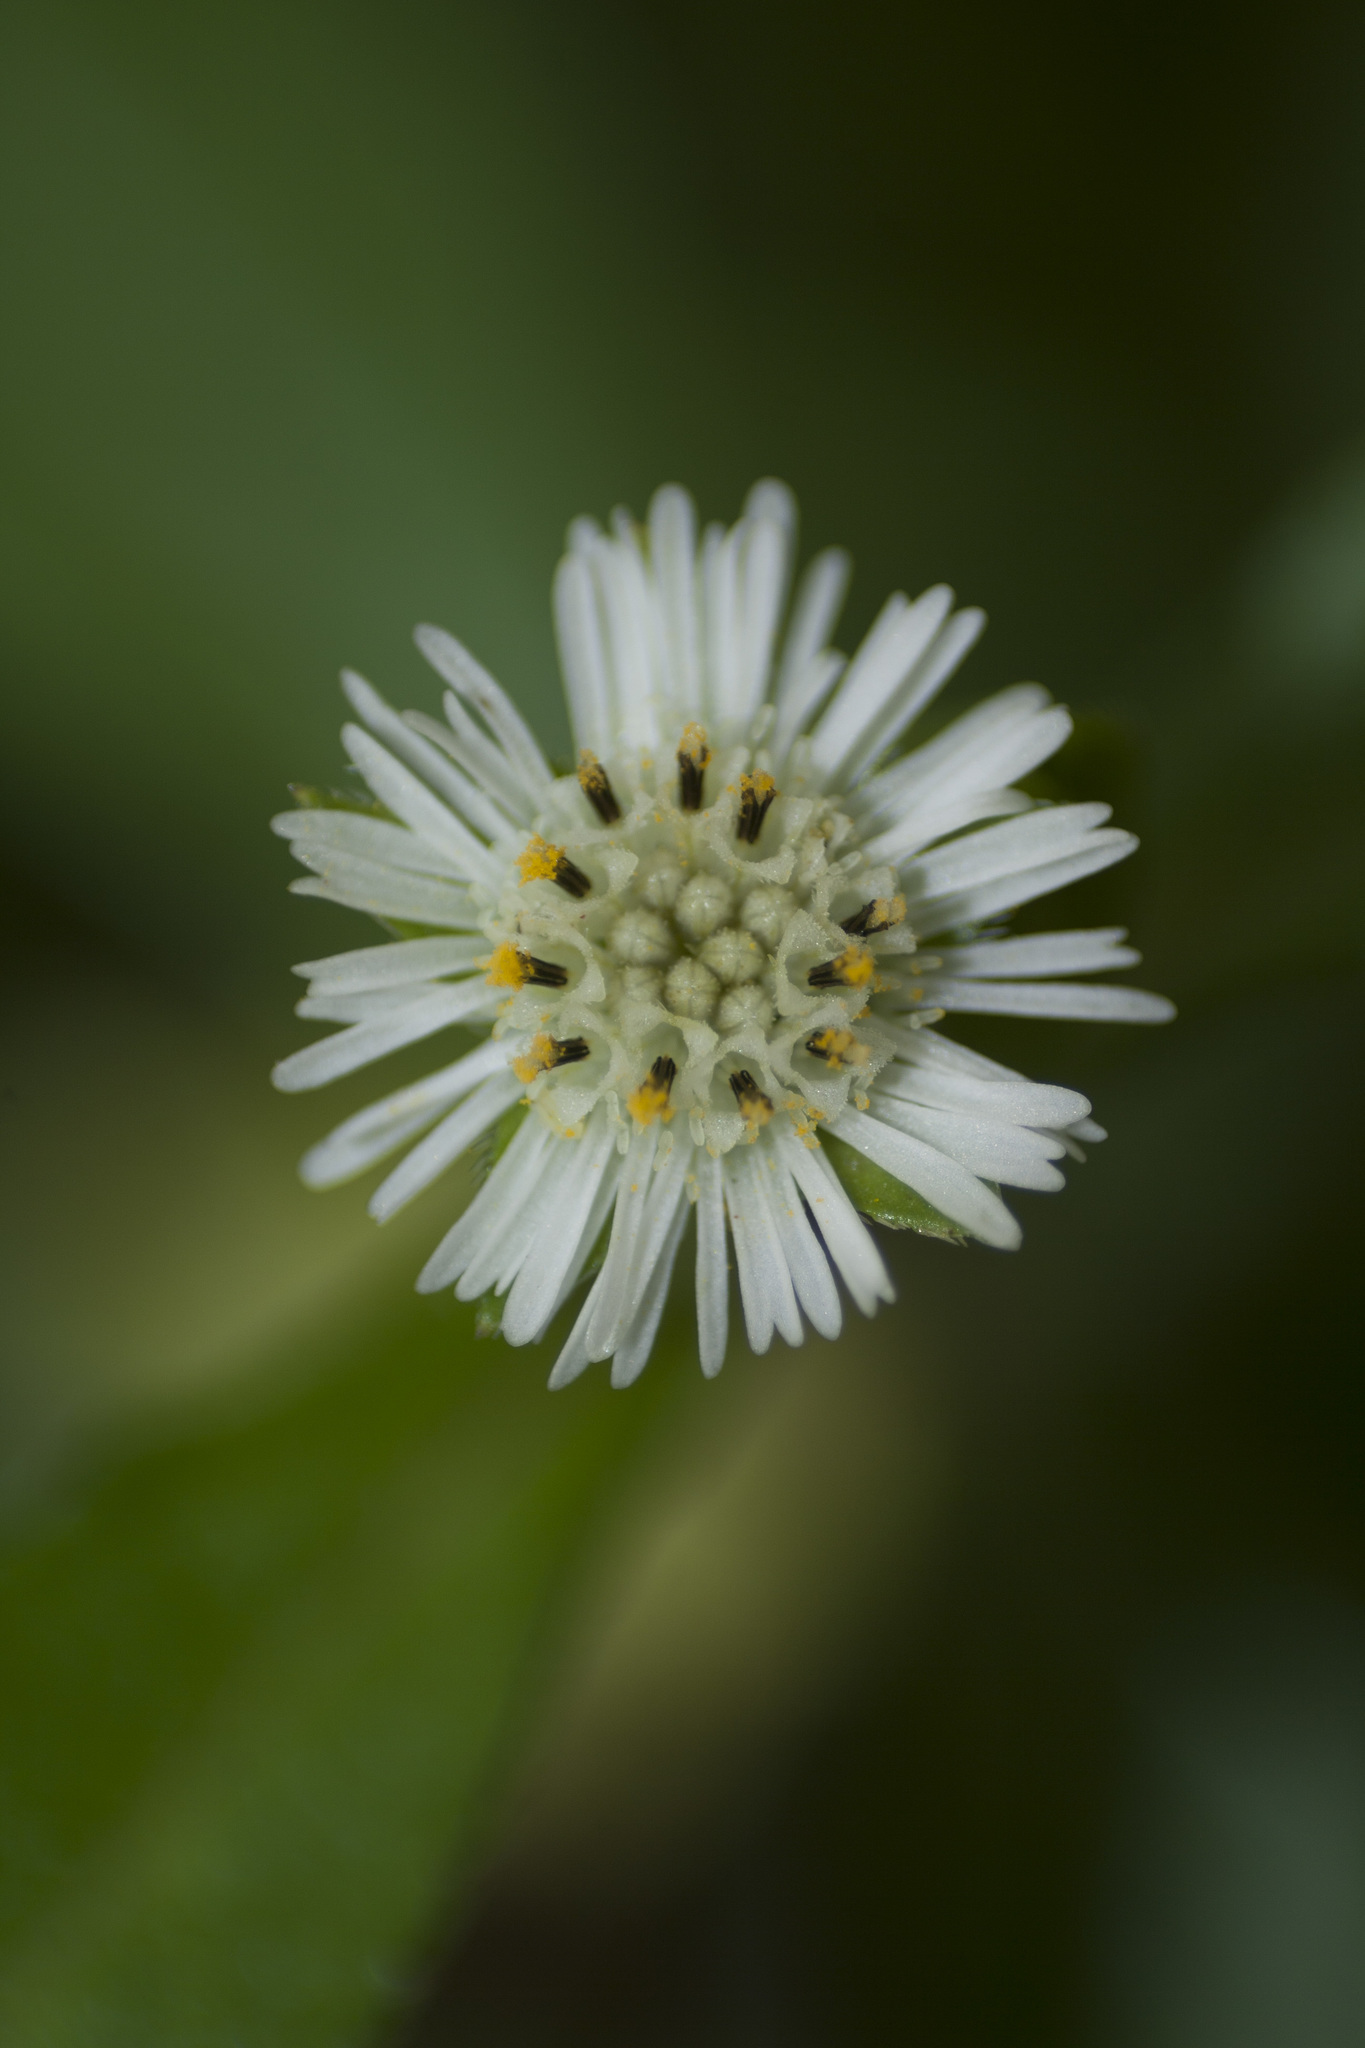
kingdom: Plantae
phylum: Tracheophyta
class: Magnoliopsida
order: Asterales
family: Asteraceae
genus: Eclipta
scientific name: Eclipta prostrata
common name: False daisy
